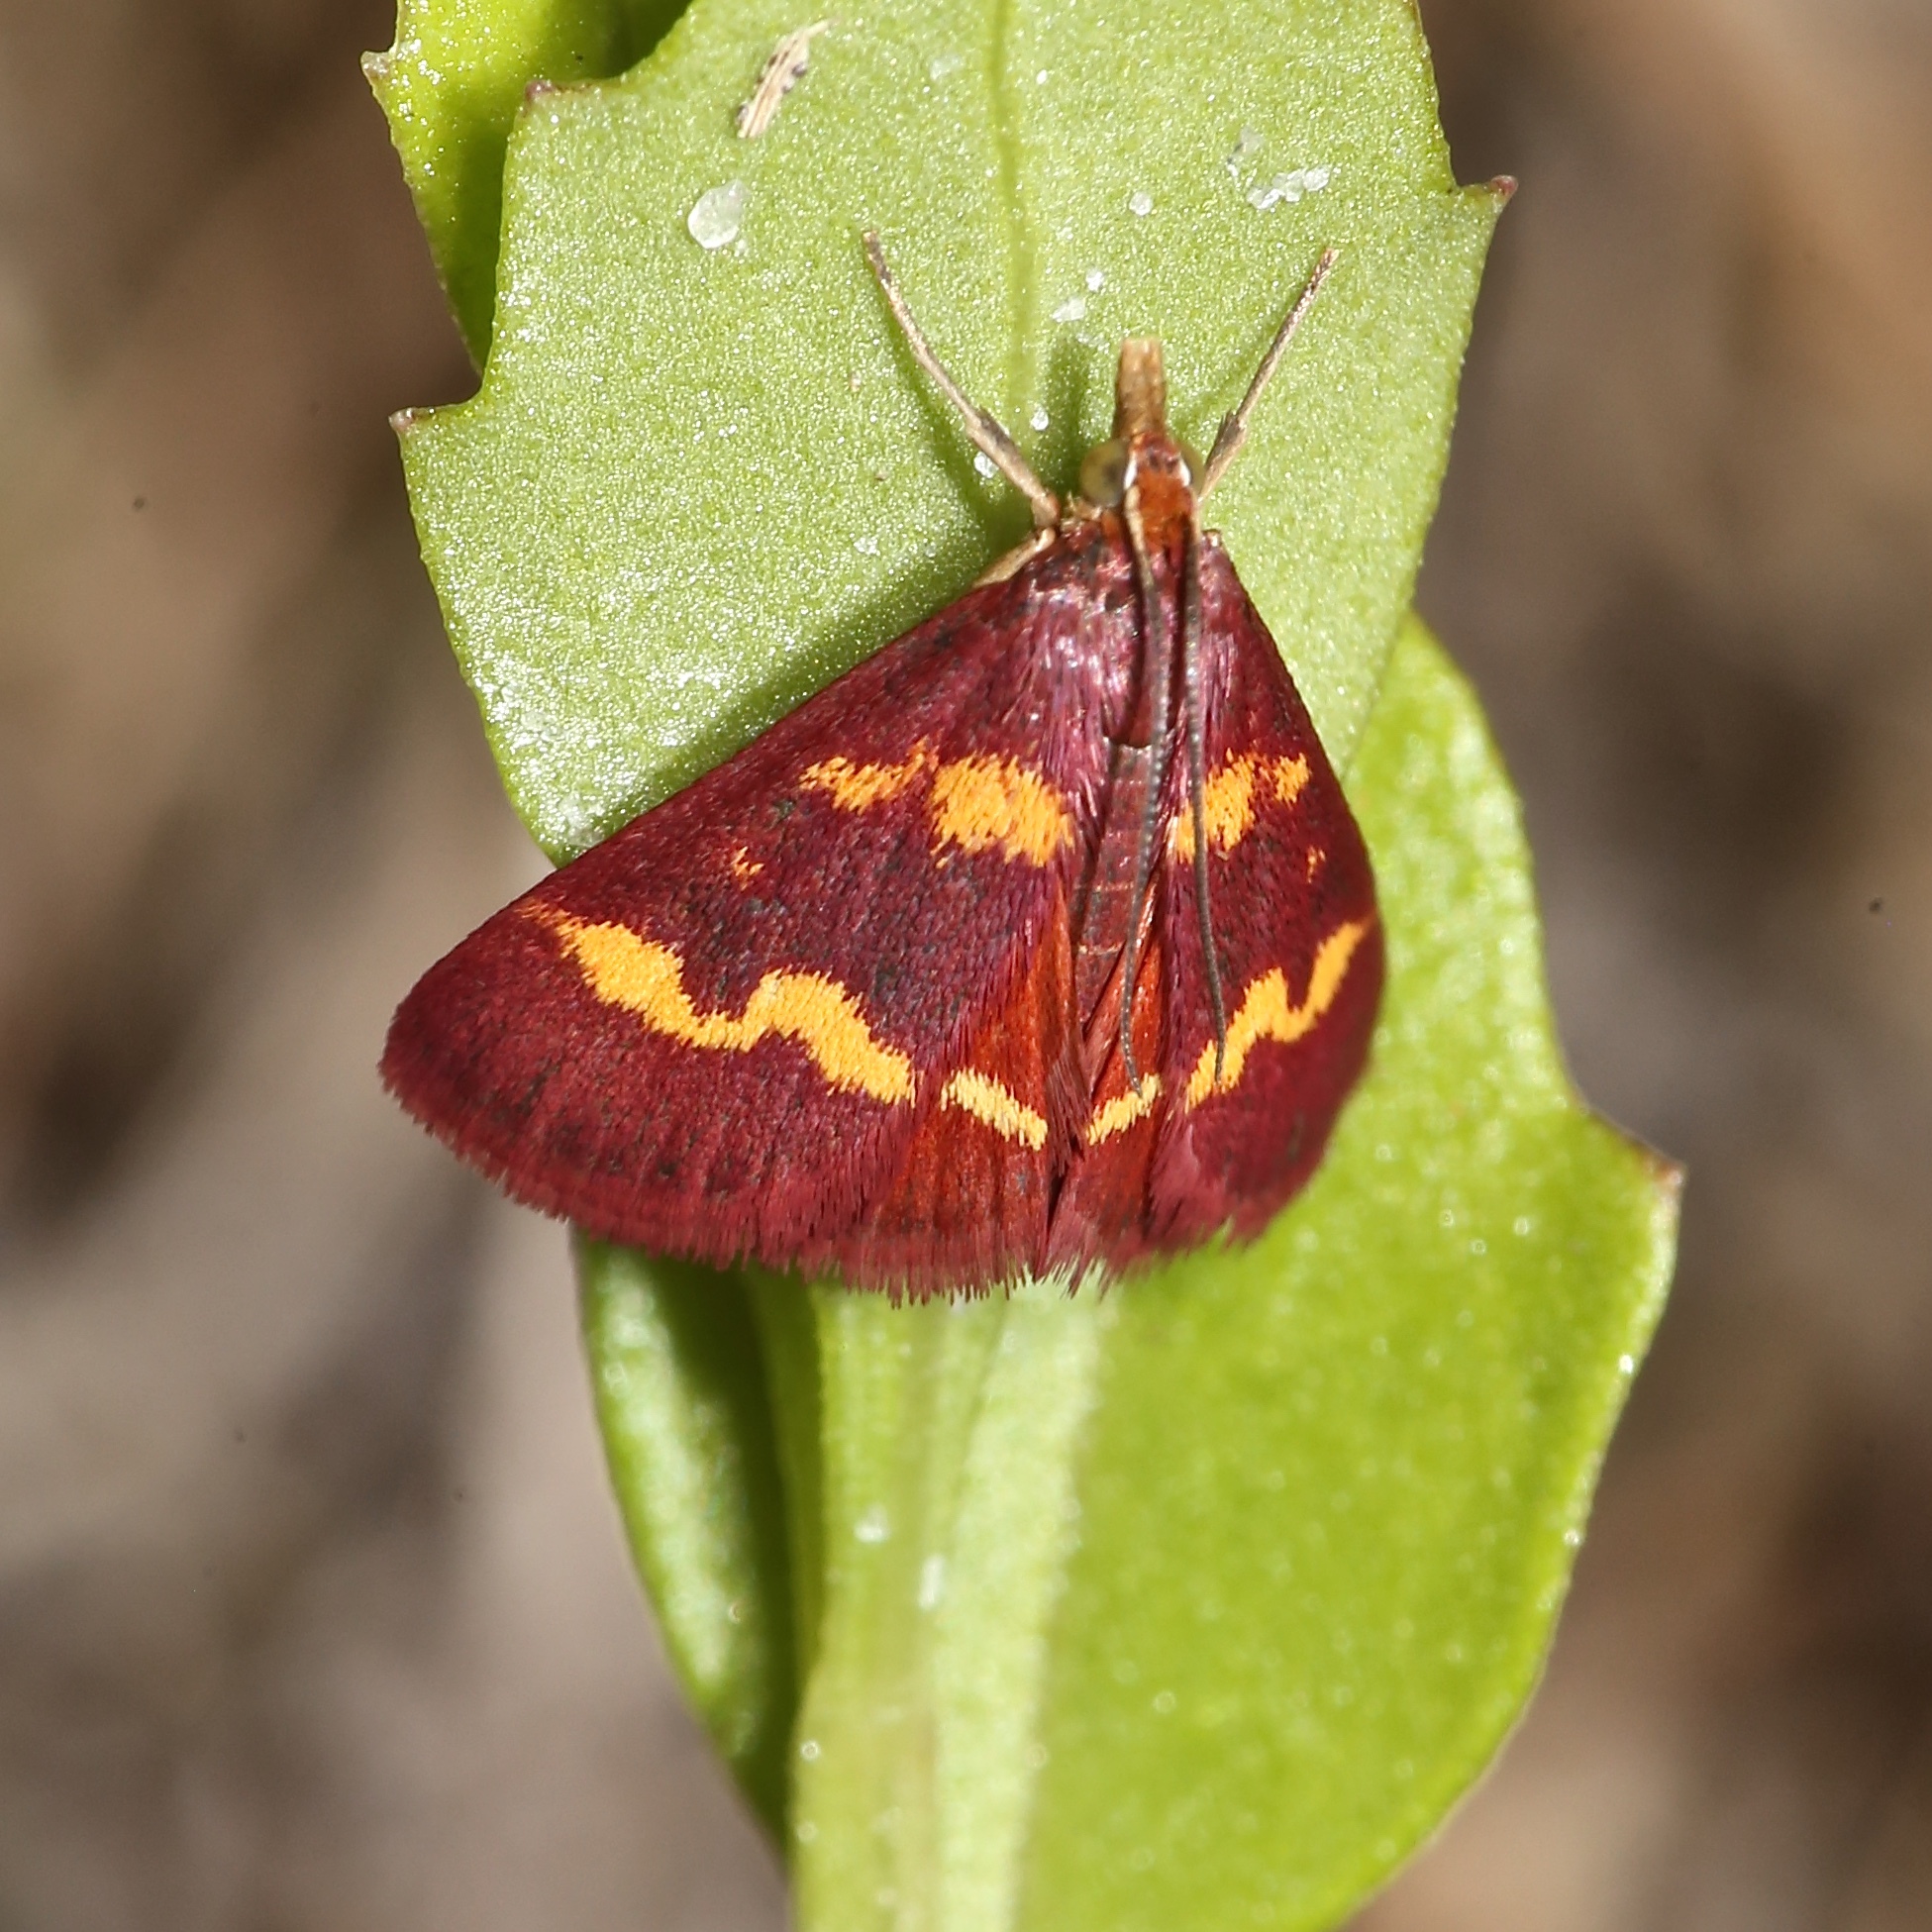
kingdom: Animalia
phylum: Arthropoda
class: Insecta
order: Lepidoptera
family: Crambidae
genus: Pyrausta
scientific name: Pyrausta tyralis
